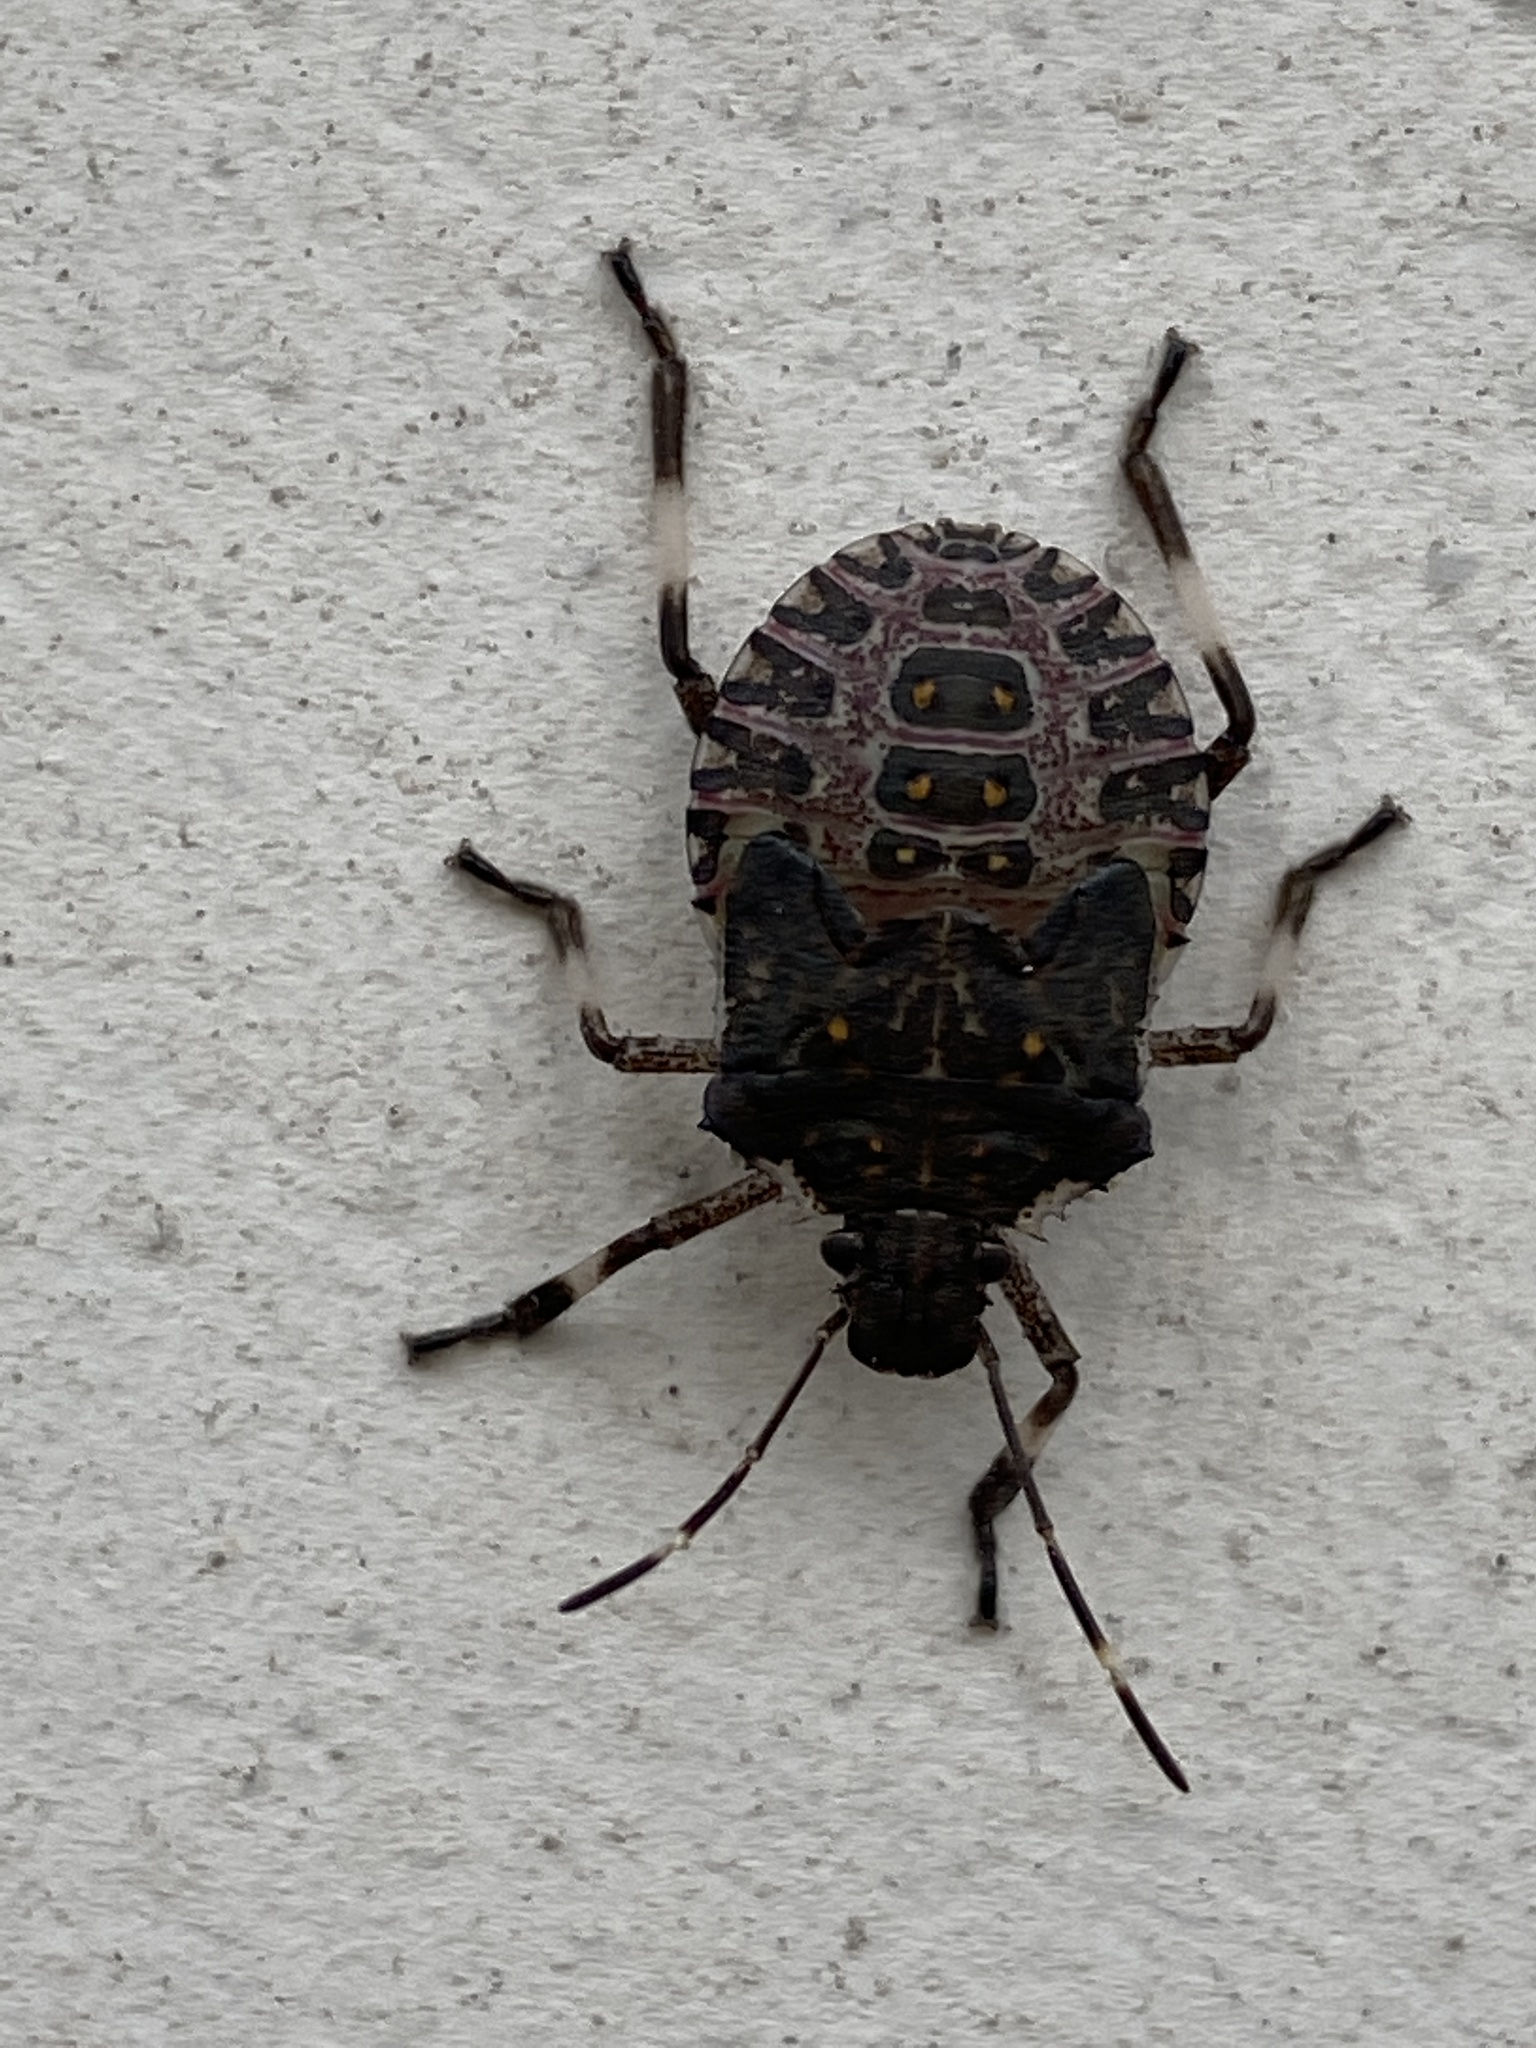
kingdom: Animalia
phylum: Arthropoda
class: Insecta
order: Hemiptera
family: Pentatomidae
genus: Halyomorpha
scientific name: Halyomorpha halys
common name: Brown marmorated stink bug
